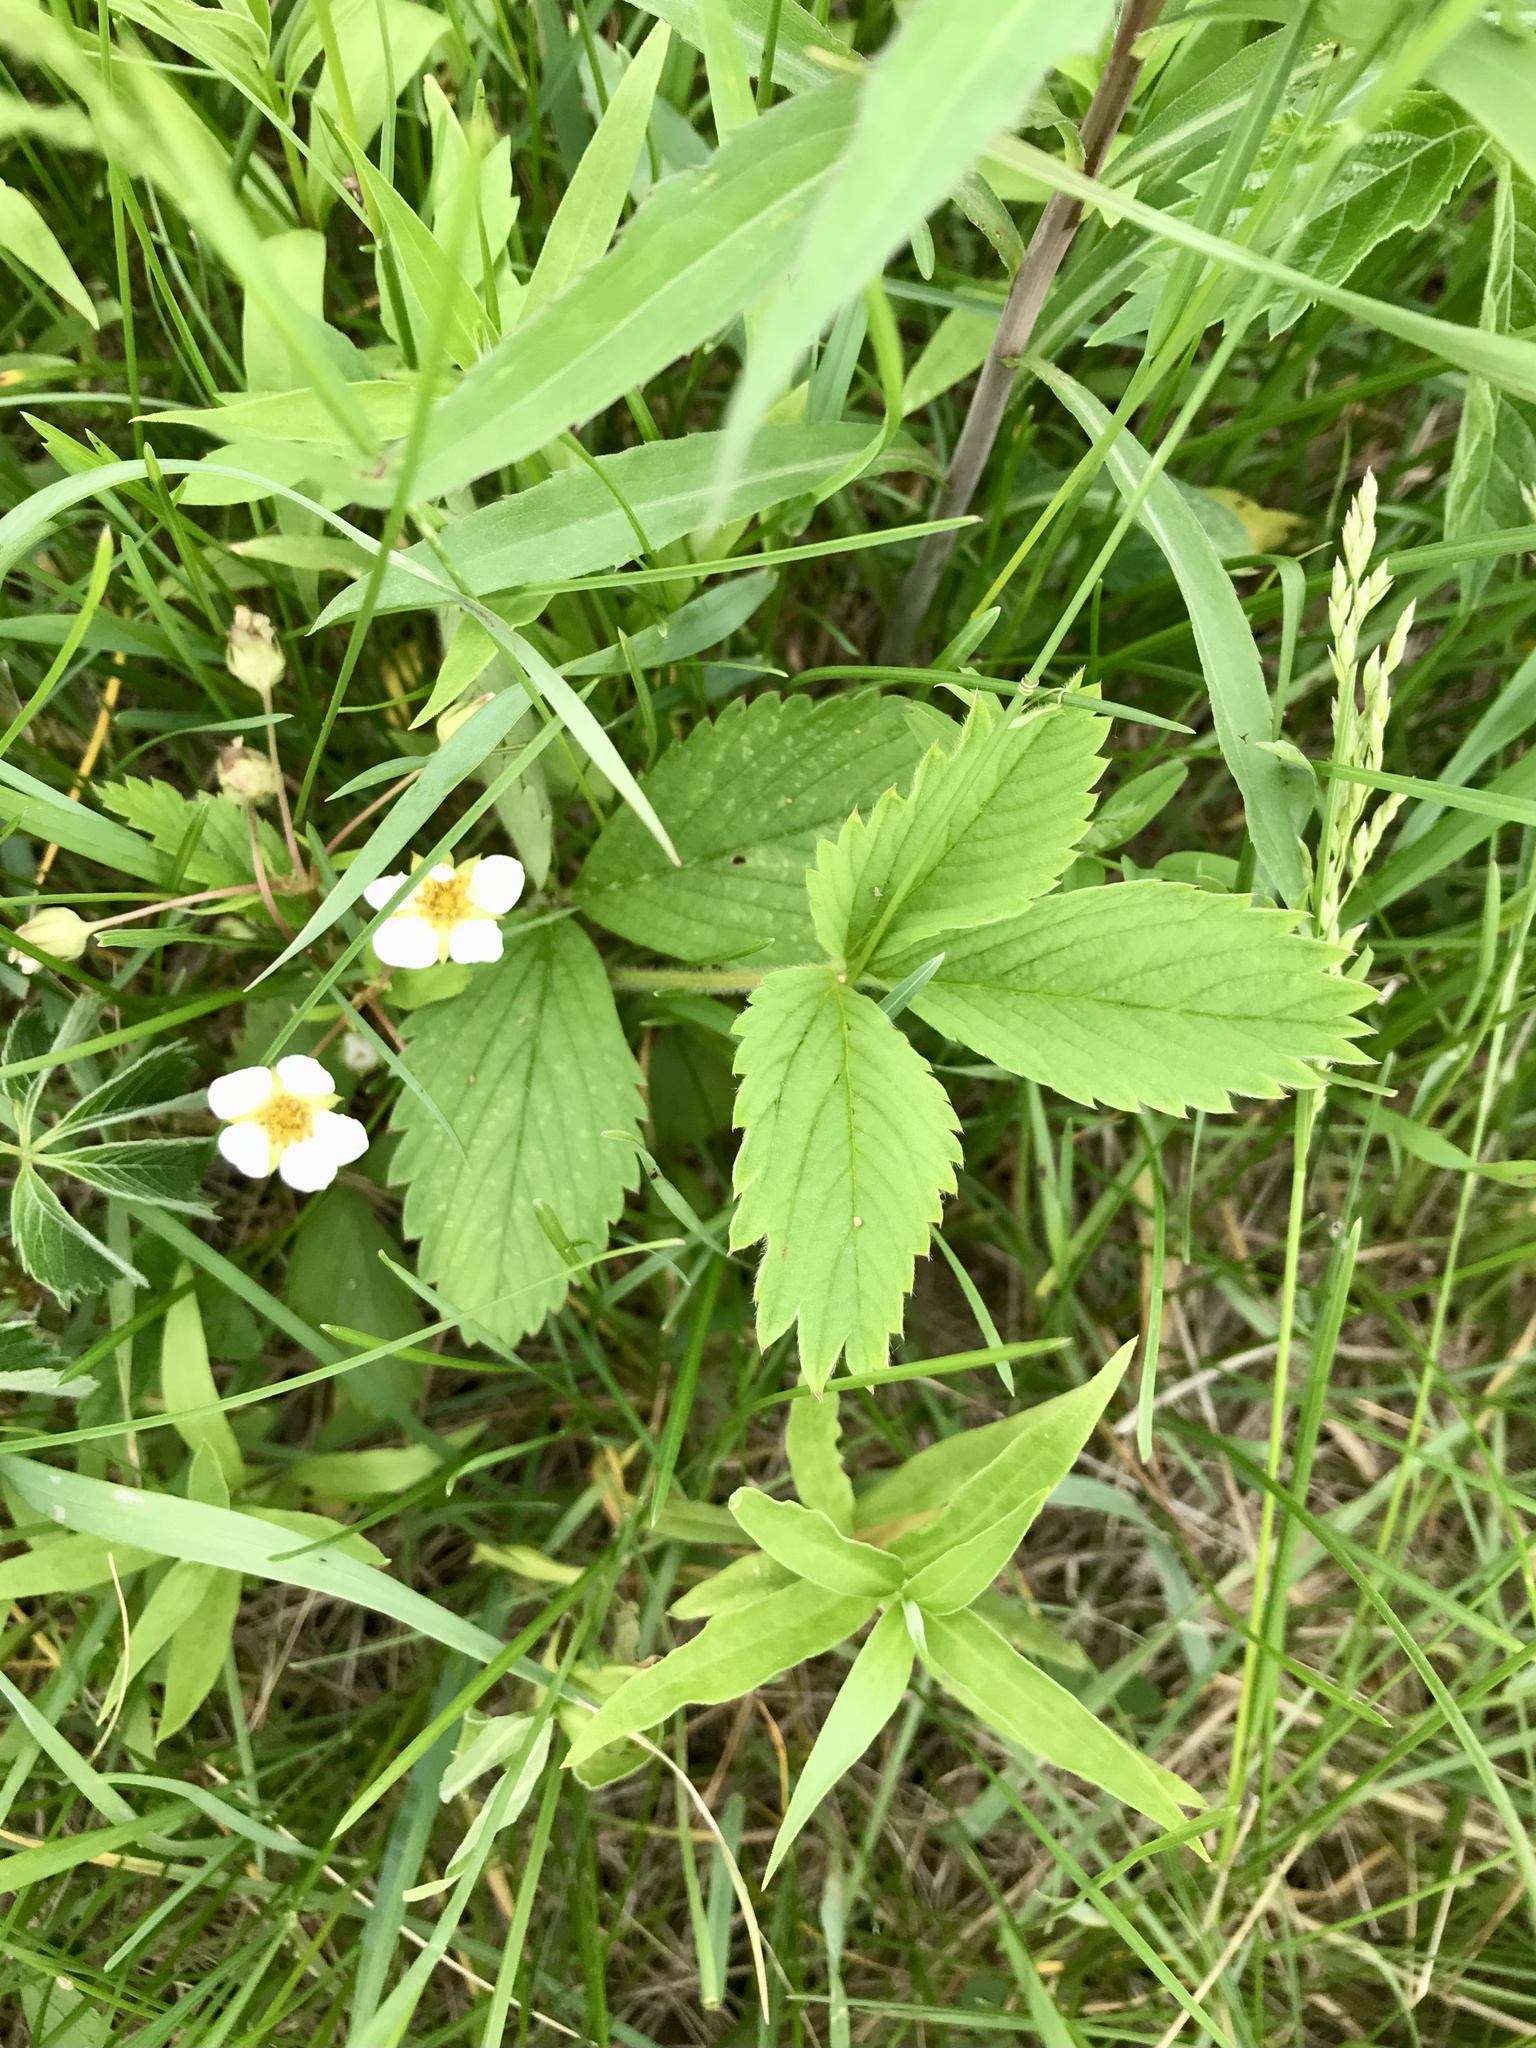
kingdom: Plantae
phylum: Tracheophyta
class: Magnoliopsida
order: Rosales
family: Rosaceae
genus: Fragaria
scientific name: Fragaria virginiana
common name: Thickleaved wild strawberry
